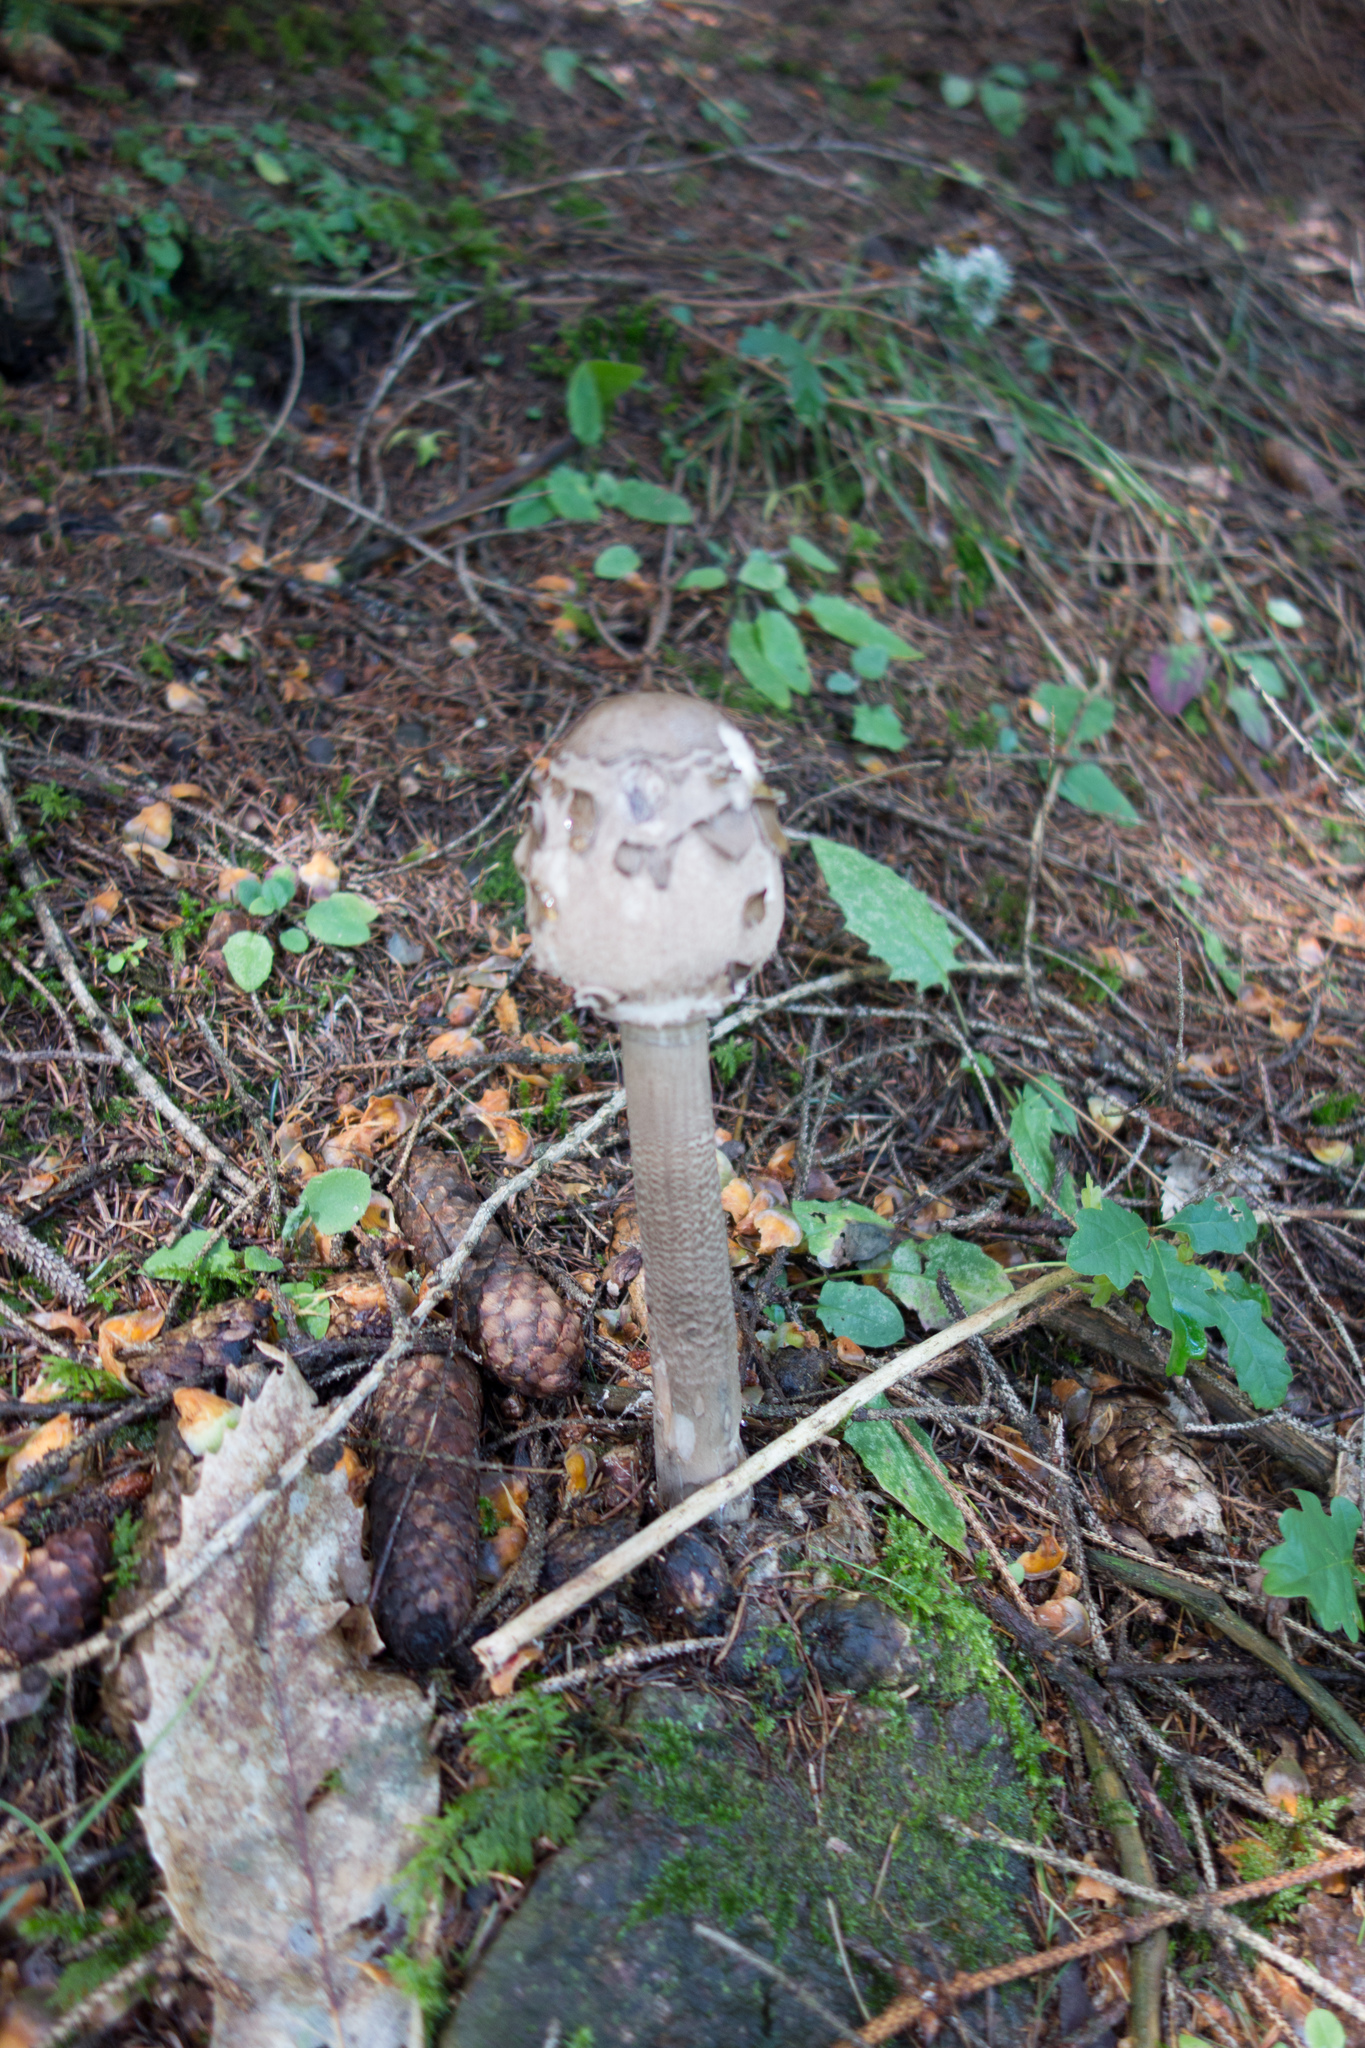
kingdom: Fungi
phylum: Basidiomycota
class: Agaricomycetes
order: Agaricales
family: Agaricaceae
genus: Macrolepiota
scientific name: Macrolepiota procera
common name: Parasol
